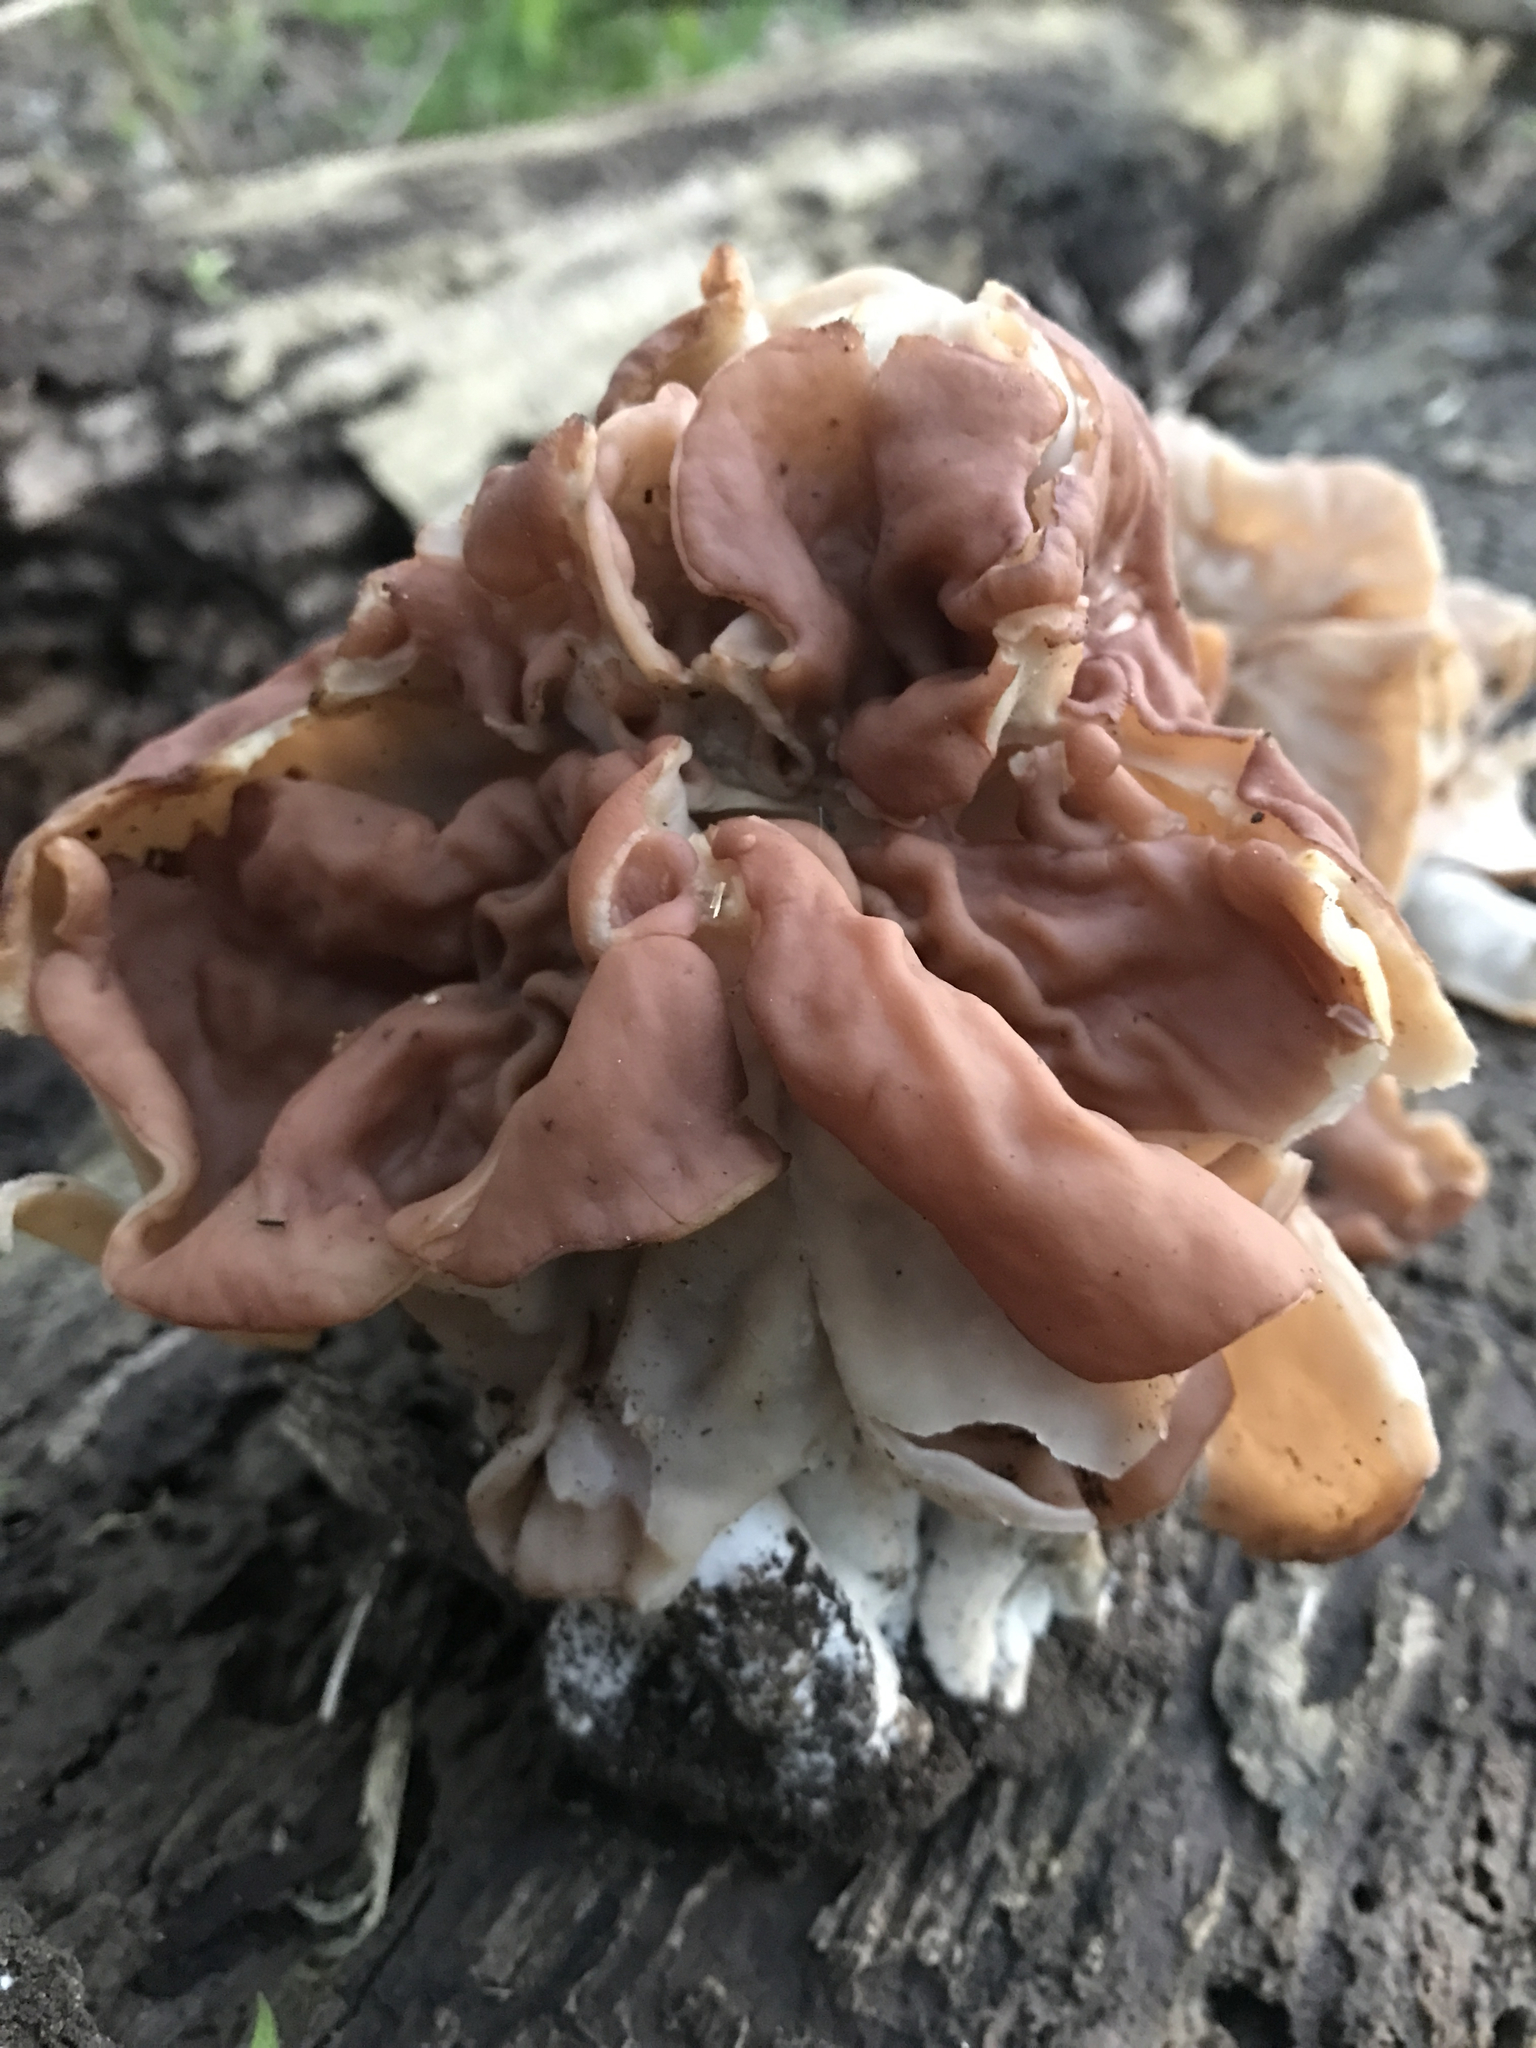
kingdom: Fungi
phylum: Ascomycota
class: Pezizomycetes
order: Pezizales
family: Discinaceae
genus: Discina
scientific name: Discina brunnea
